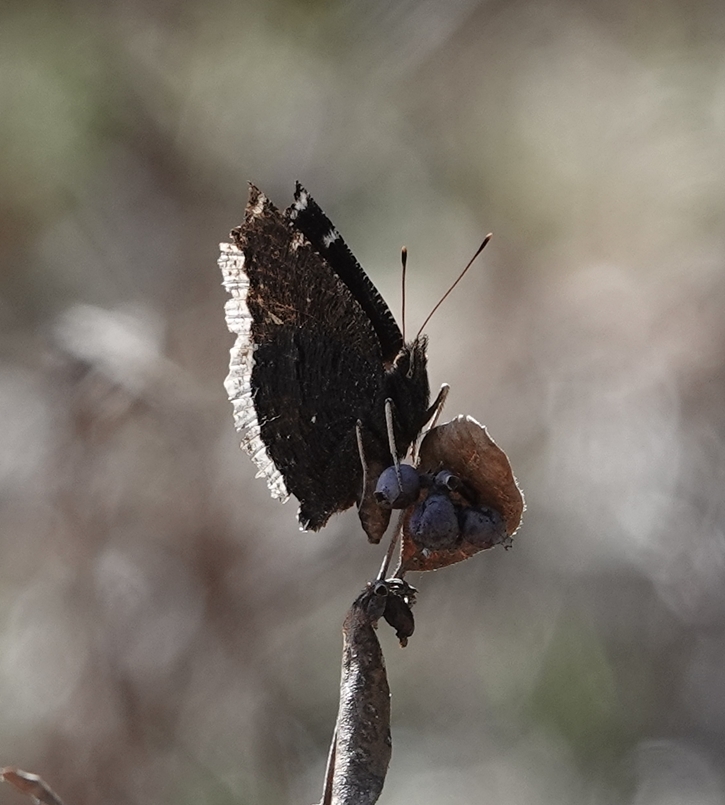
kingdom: Animalia
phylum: Arthropoda
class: Insecta
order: Lepidoptera
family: Nymphalidae
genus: Nymphalis
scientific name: Nymphalis antiopa
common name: Camberwell beauty
